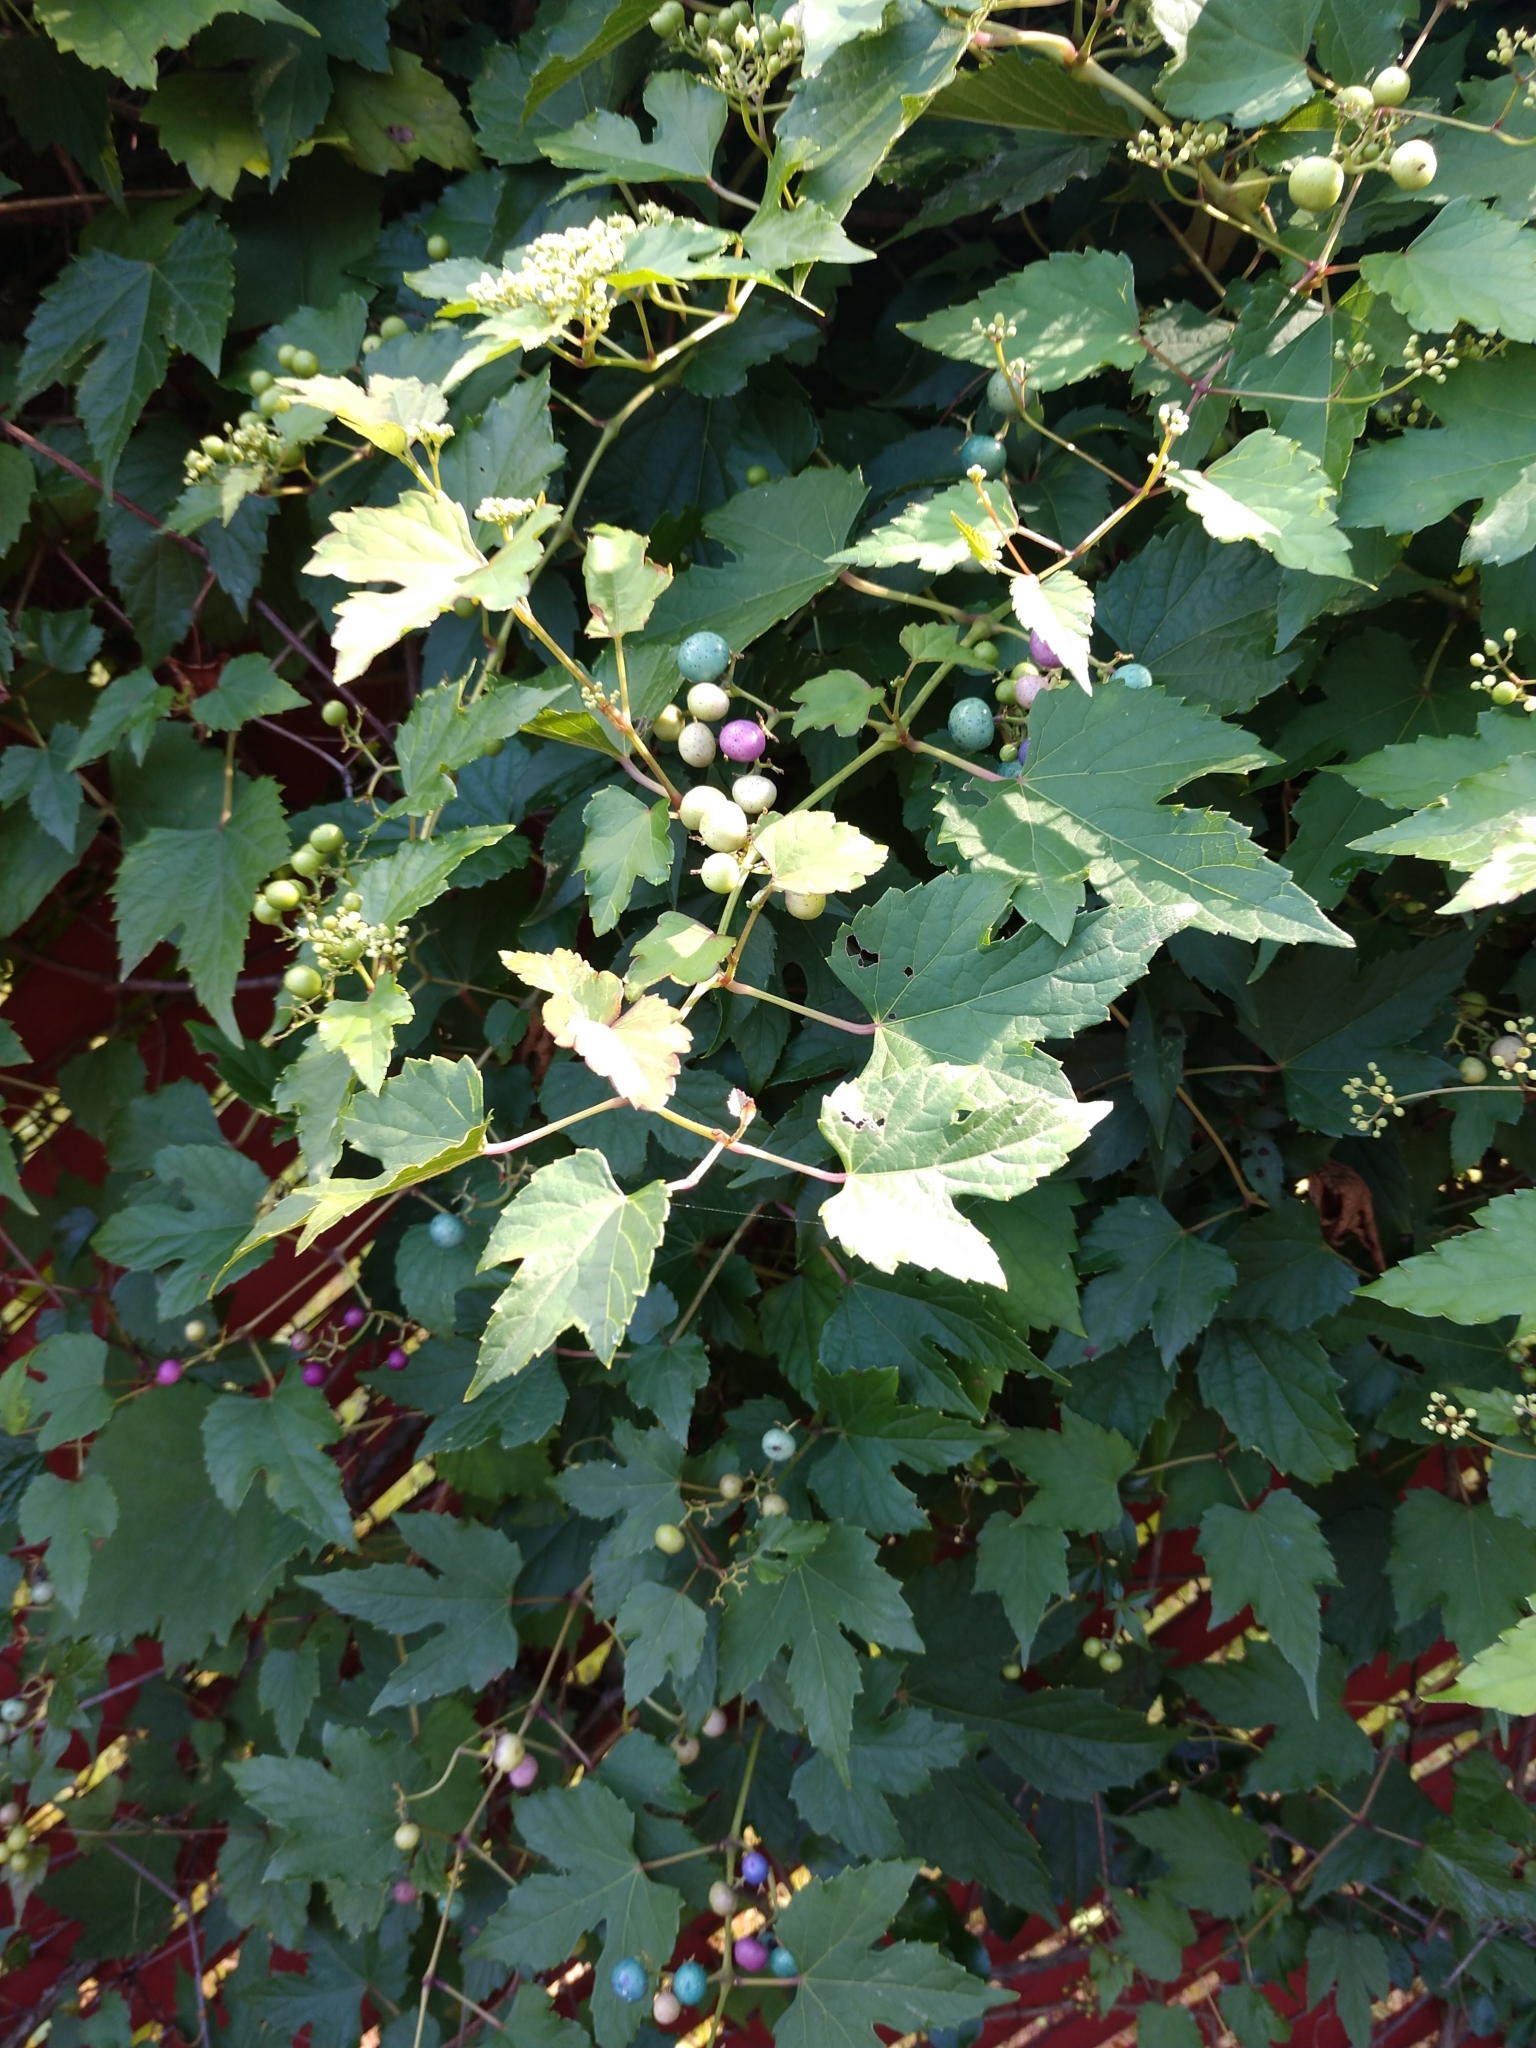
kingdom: Plantae
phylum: Tracheophyta
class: Magnoliopsida
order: Vitales
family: Vitaceae
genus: Ampelopsis
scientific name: Ampelopsis glandulosa
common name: Amur peppervine
